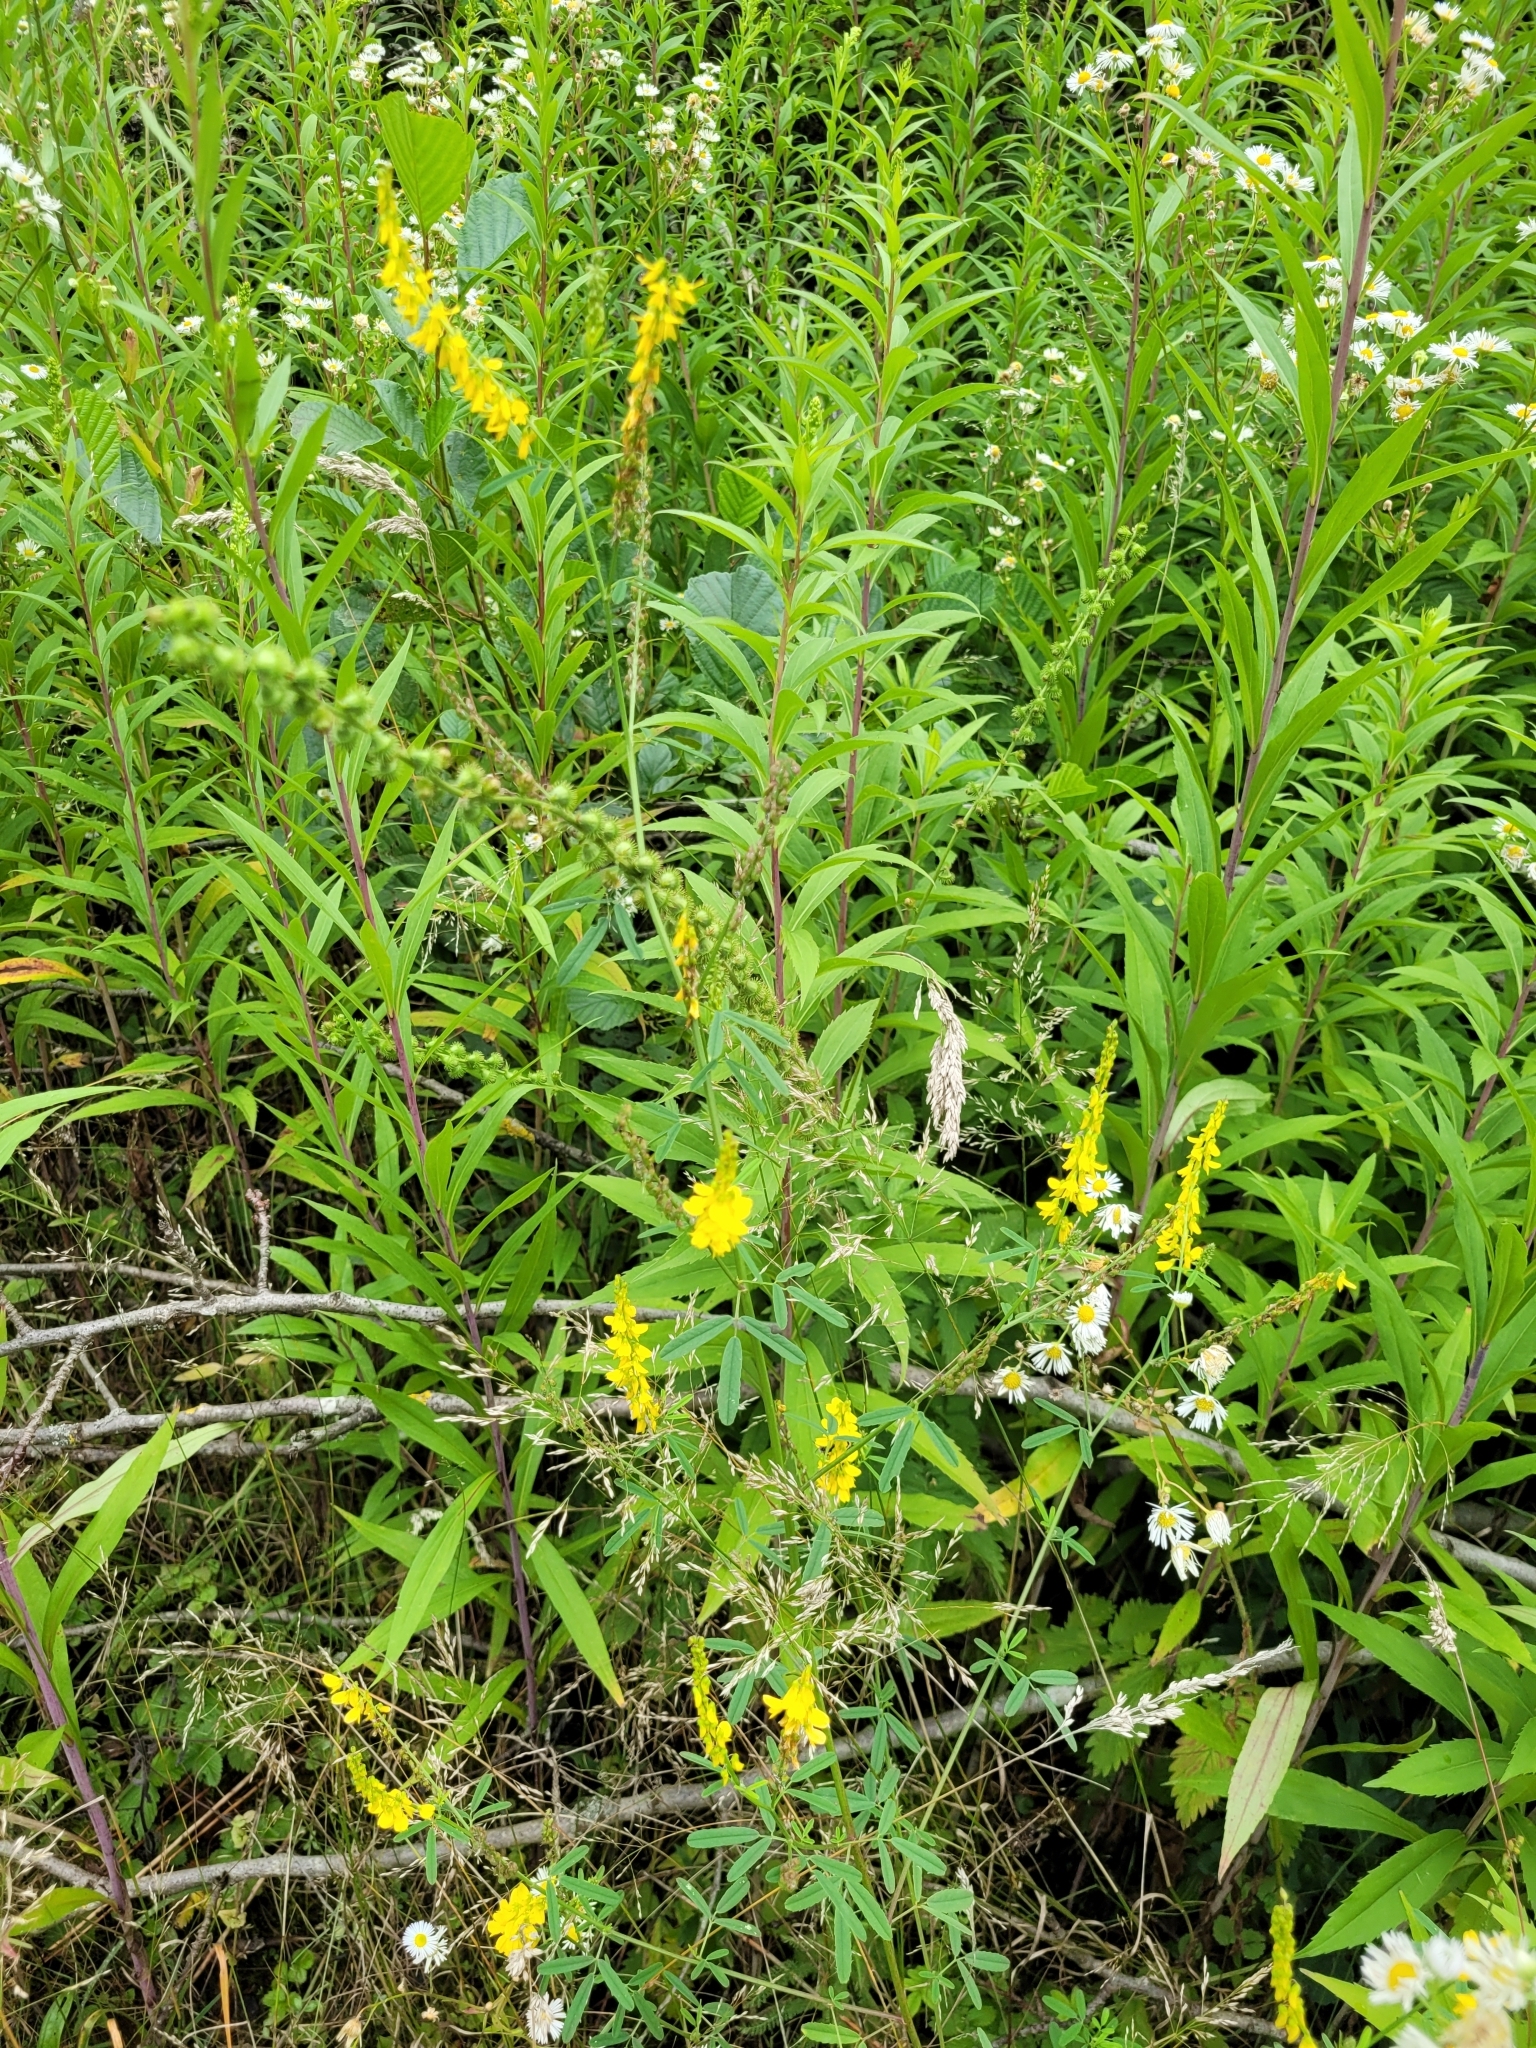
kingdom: Plantae
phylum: Tracheophyta
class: Magnoliopsida
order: Fabales
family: Fabaceae
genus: Melilotus
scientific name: Melilotus officinalis
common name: Sweetclover
